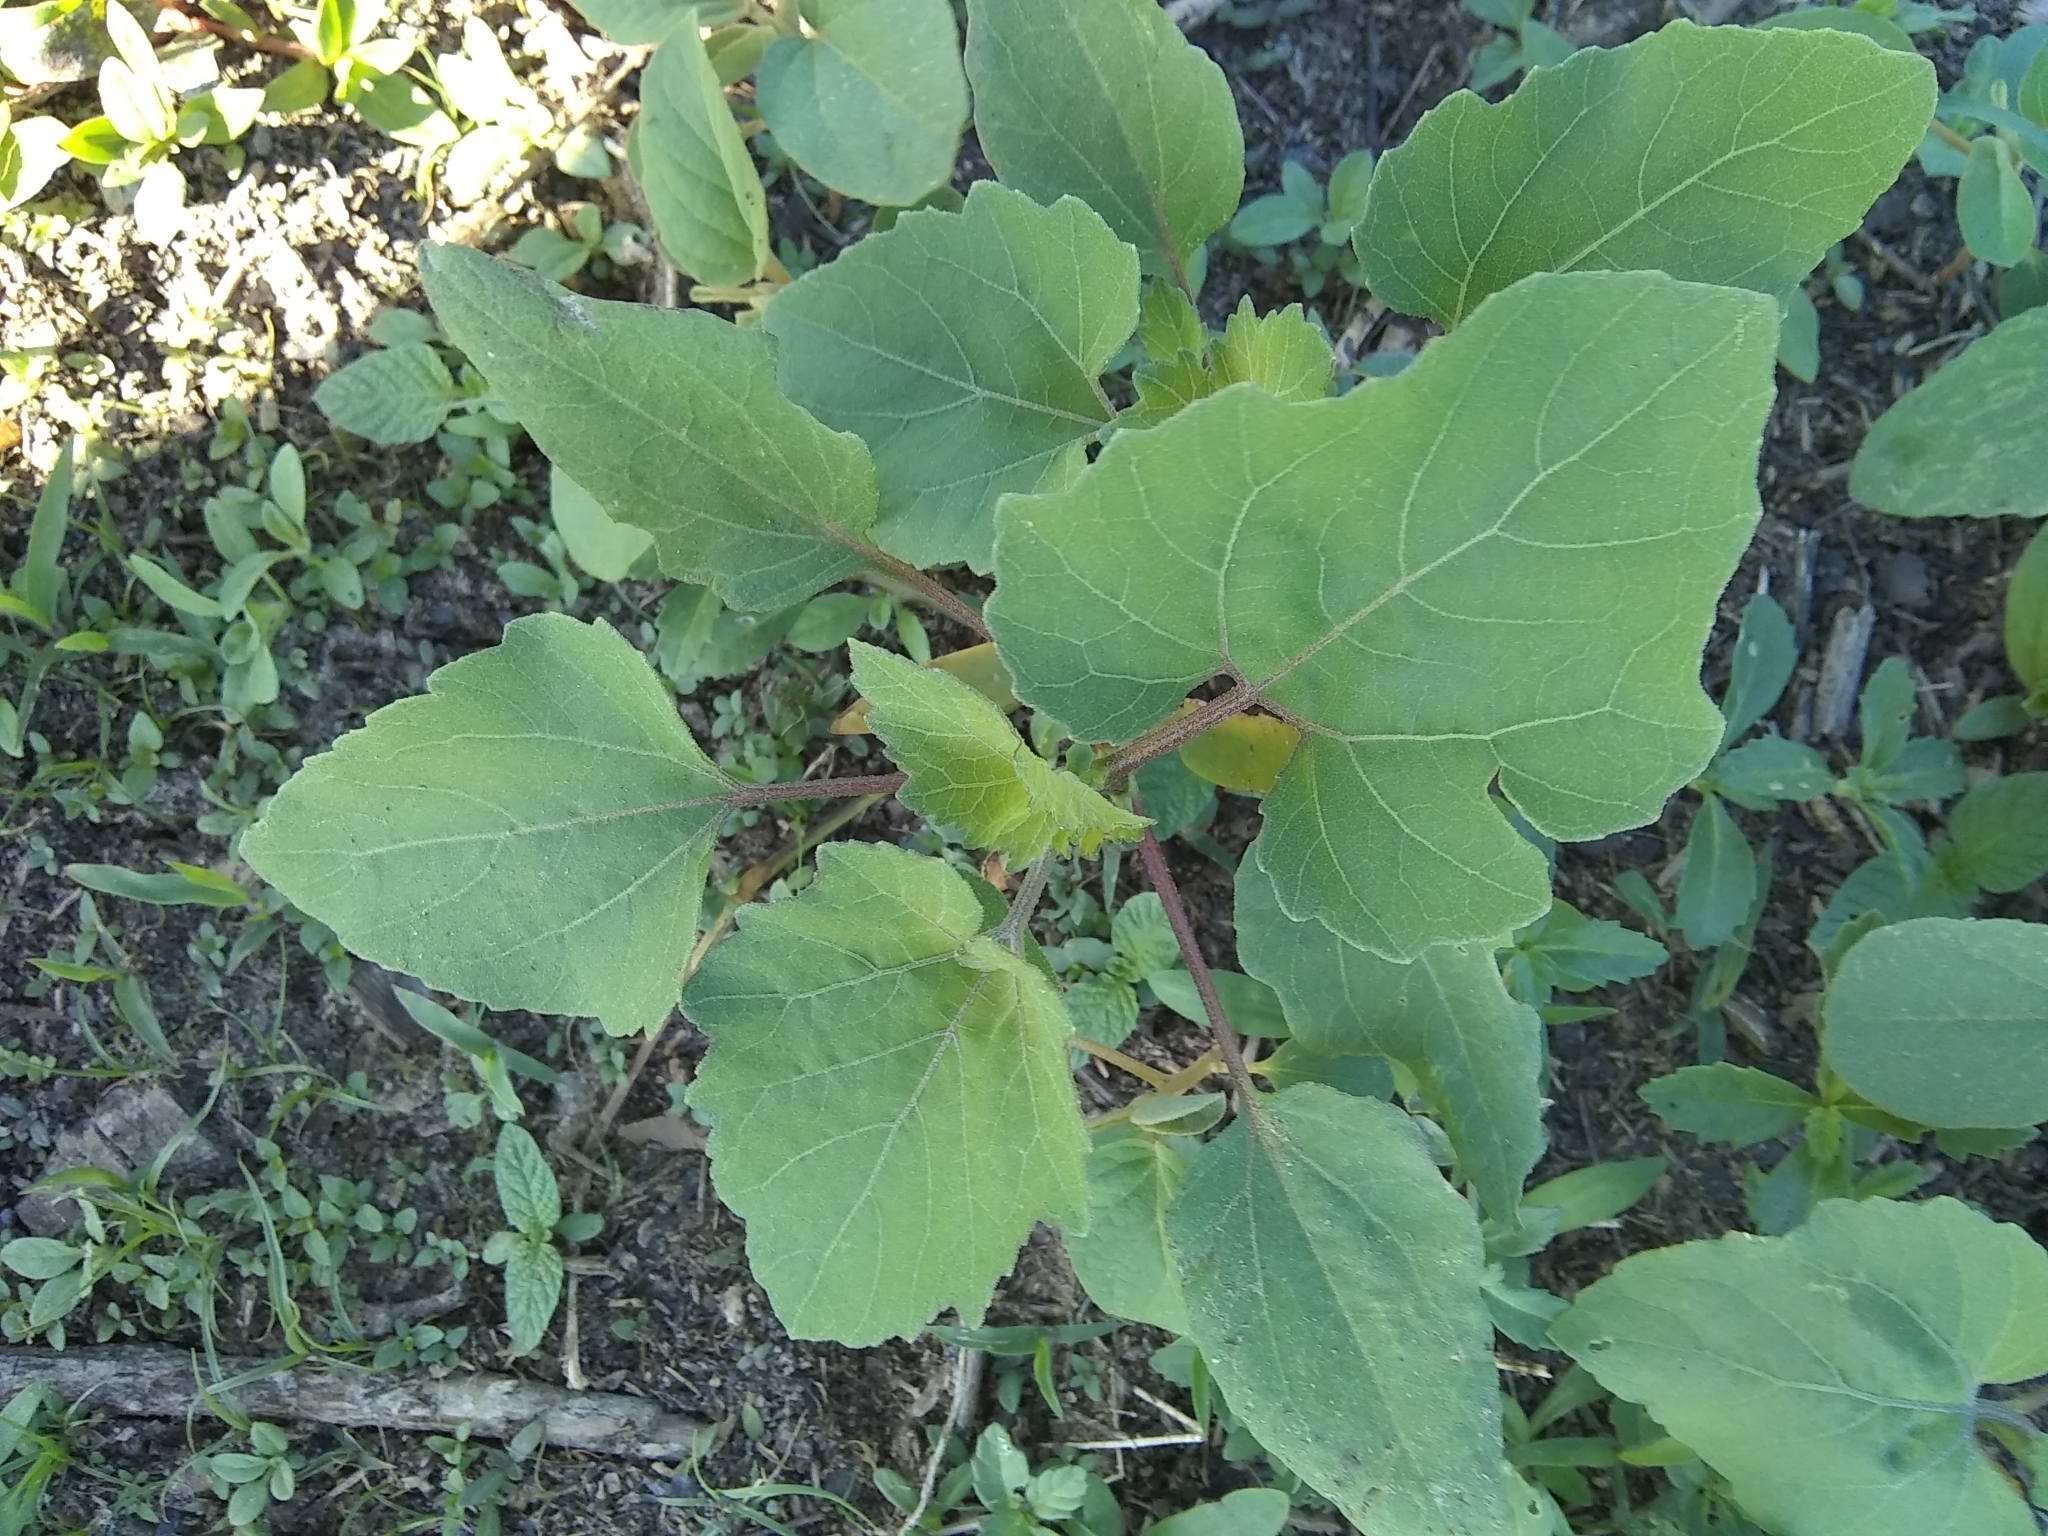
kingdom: Plantae
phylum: Tracheophyta
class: Magnoliopsida
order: Asterales
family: Asteraceae
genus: Xanthium
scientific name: Xanthium strumarium
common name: Rough cocklebur
